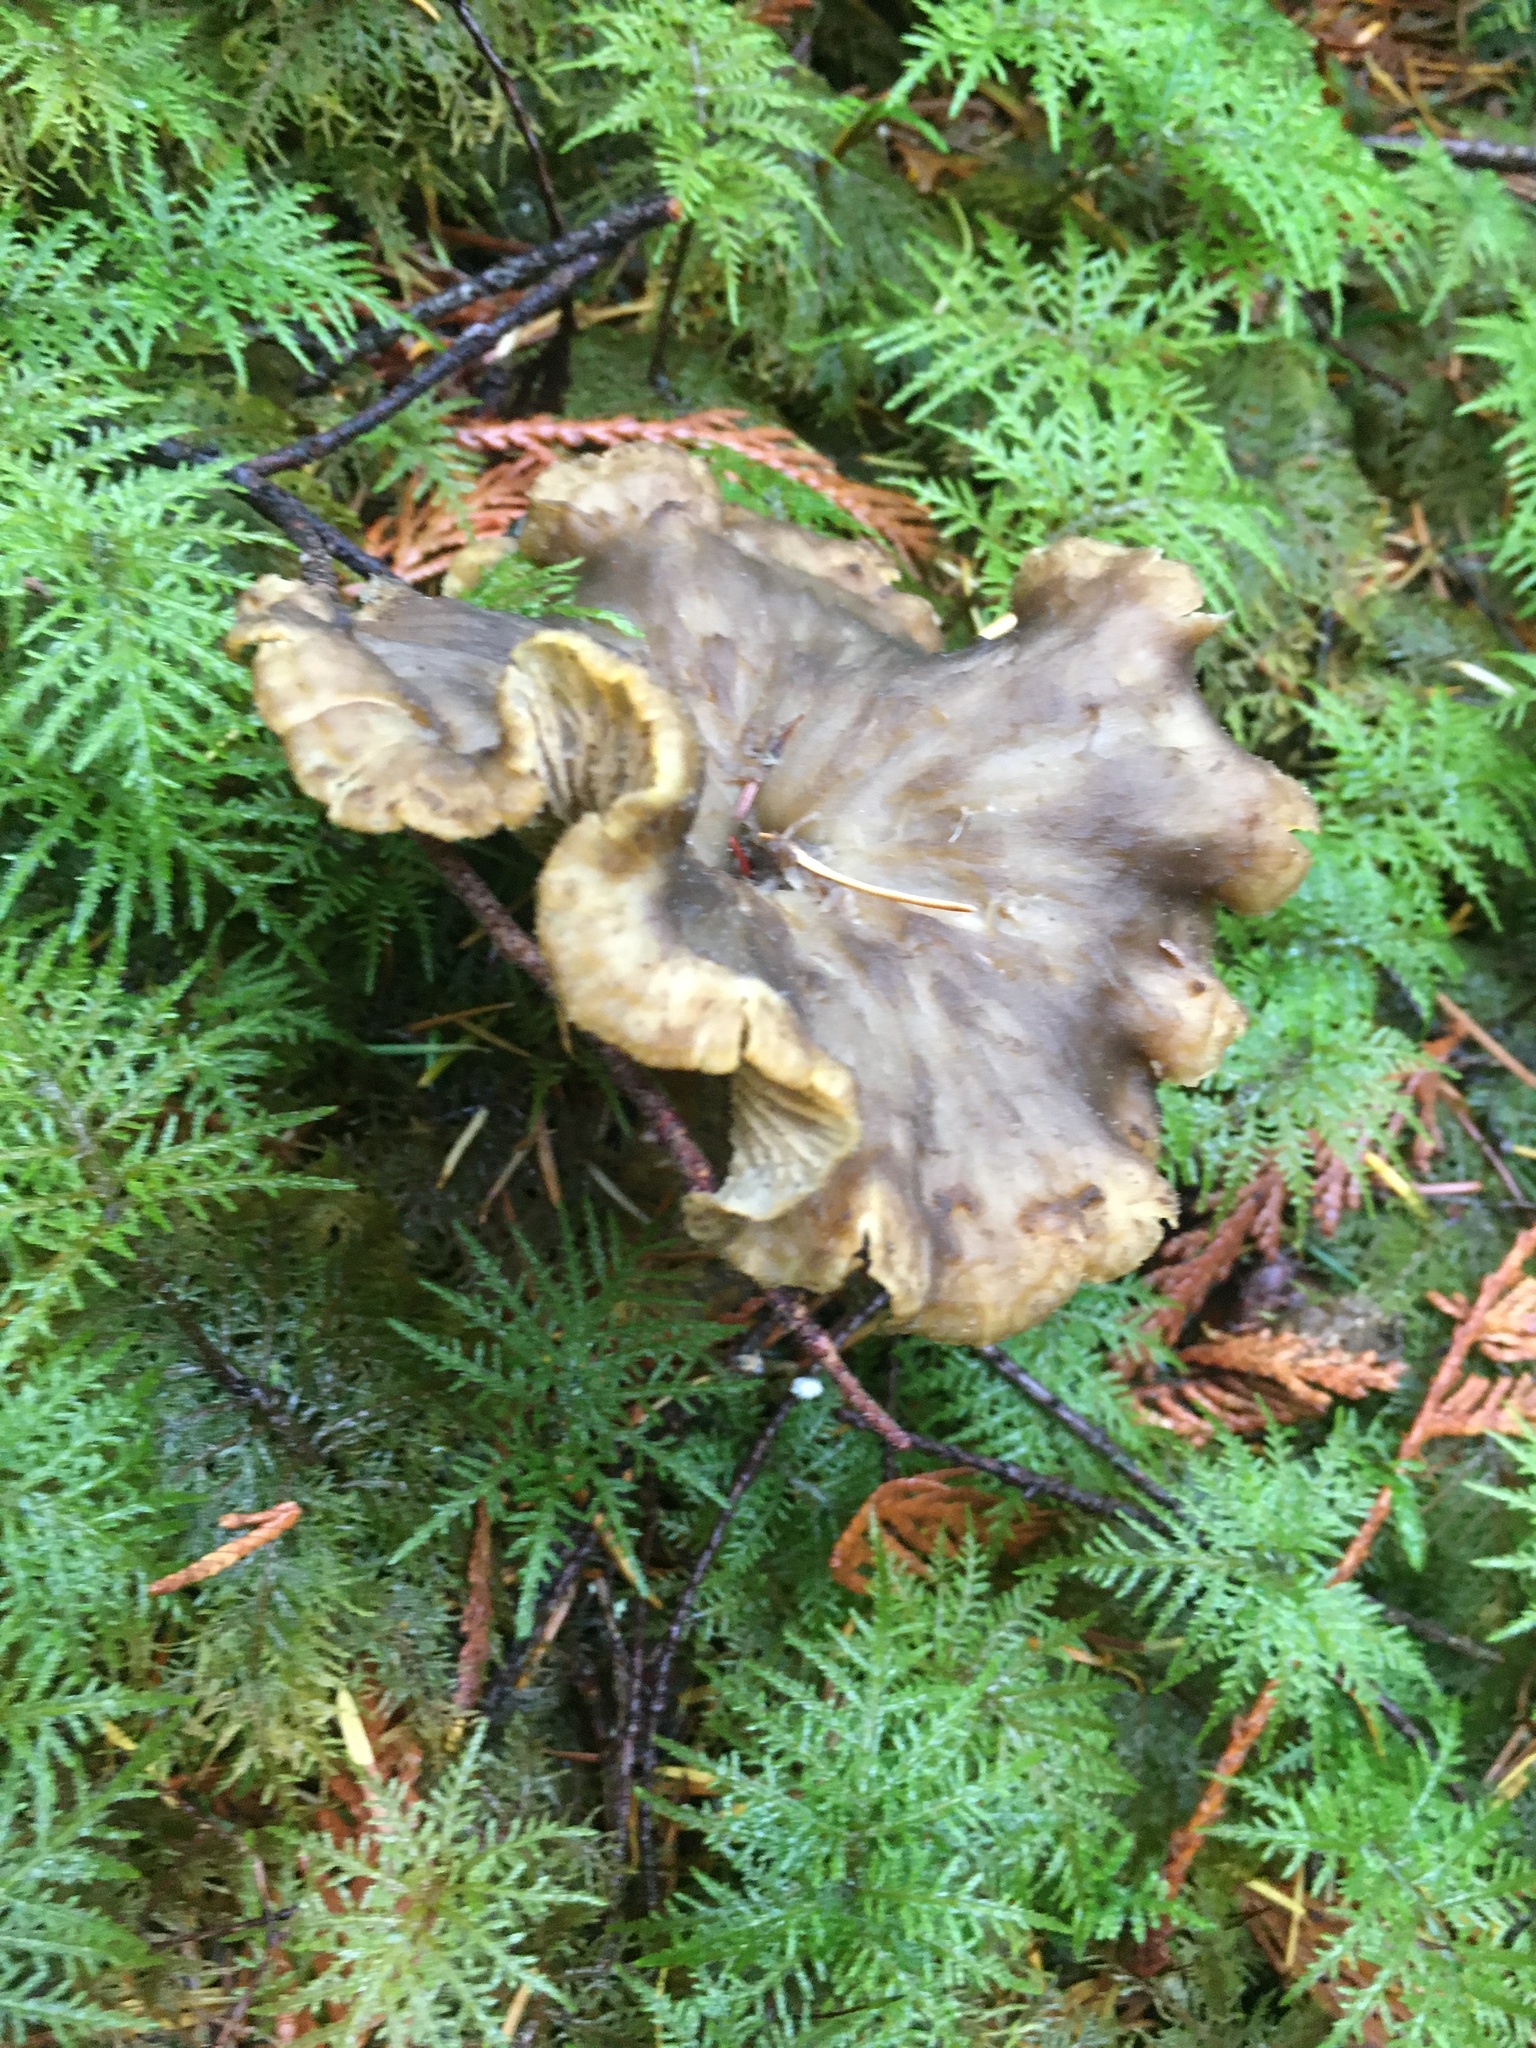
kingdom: Fungi
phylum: Basidiomycota
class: Agaricomycetes
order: Cantharellales
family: Hydnaceae
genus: Craterellus
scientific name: Craterellus tubaeformis
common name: Yellowfoot
